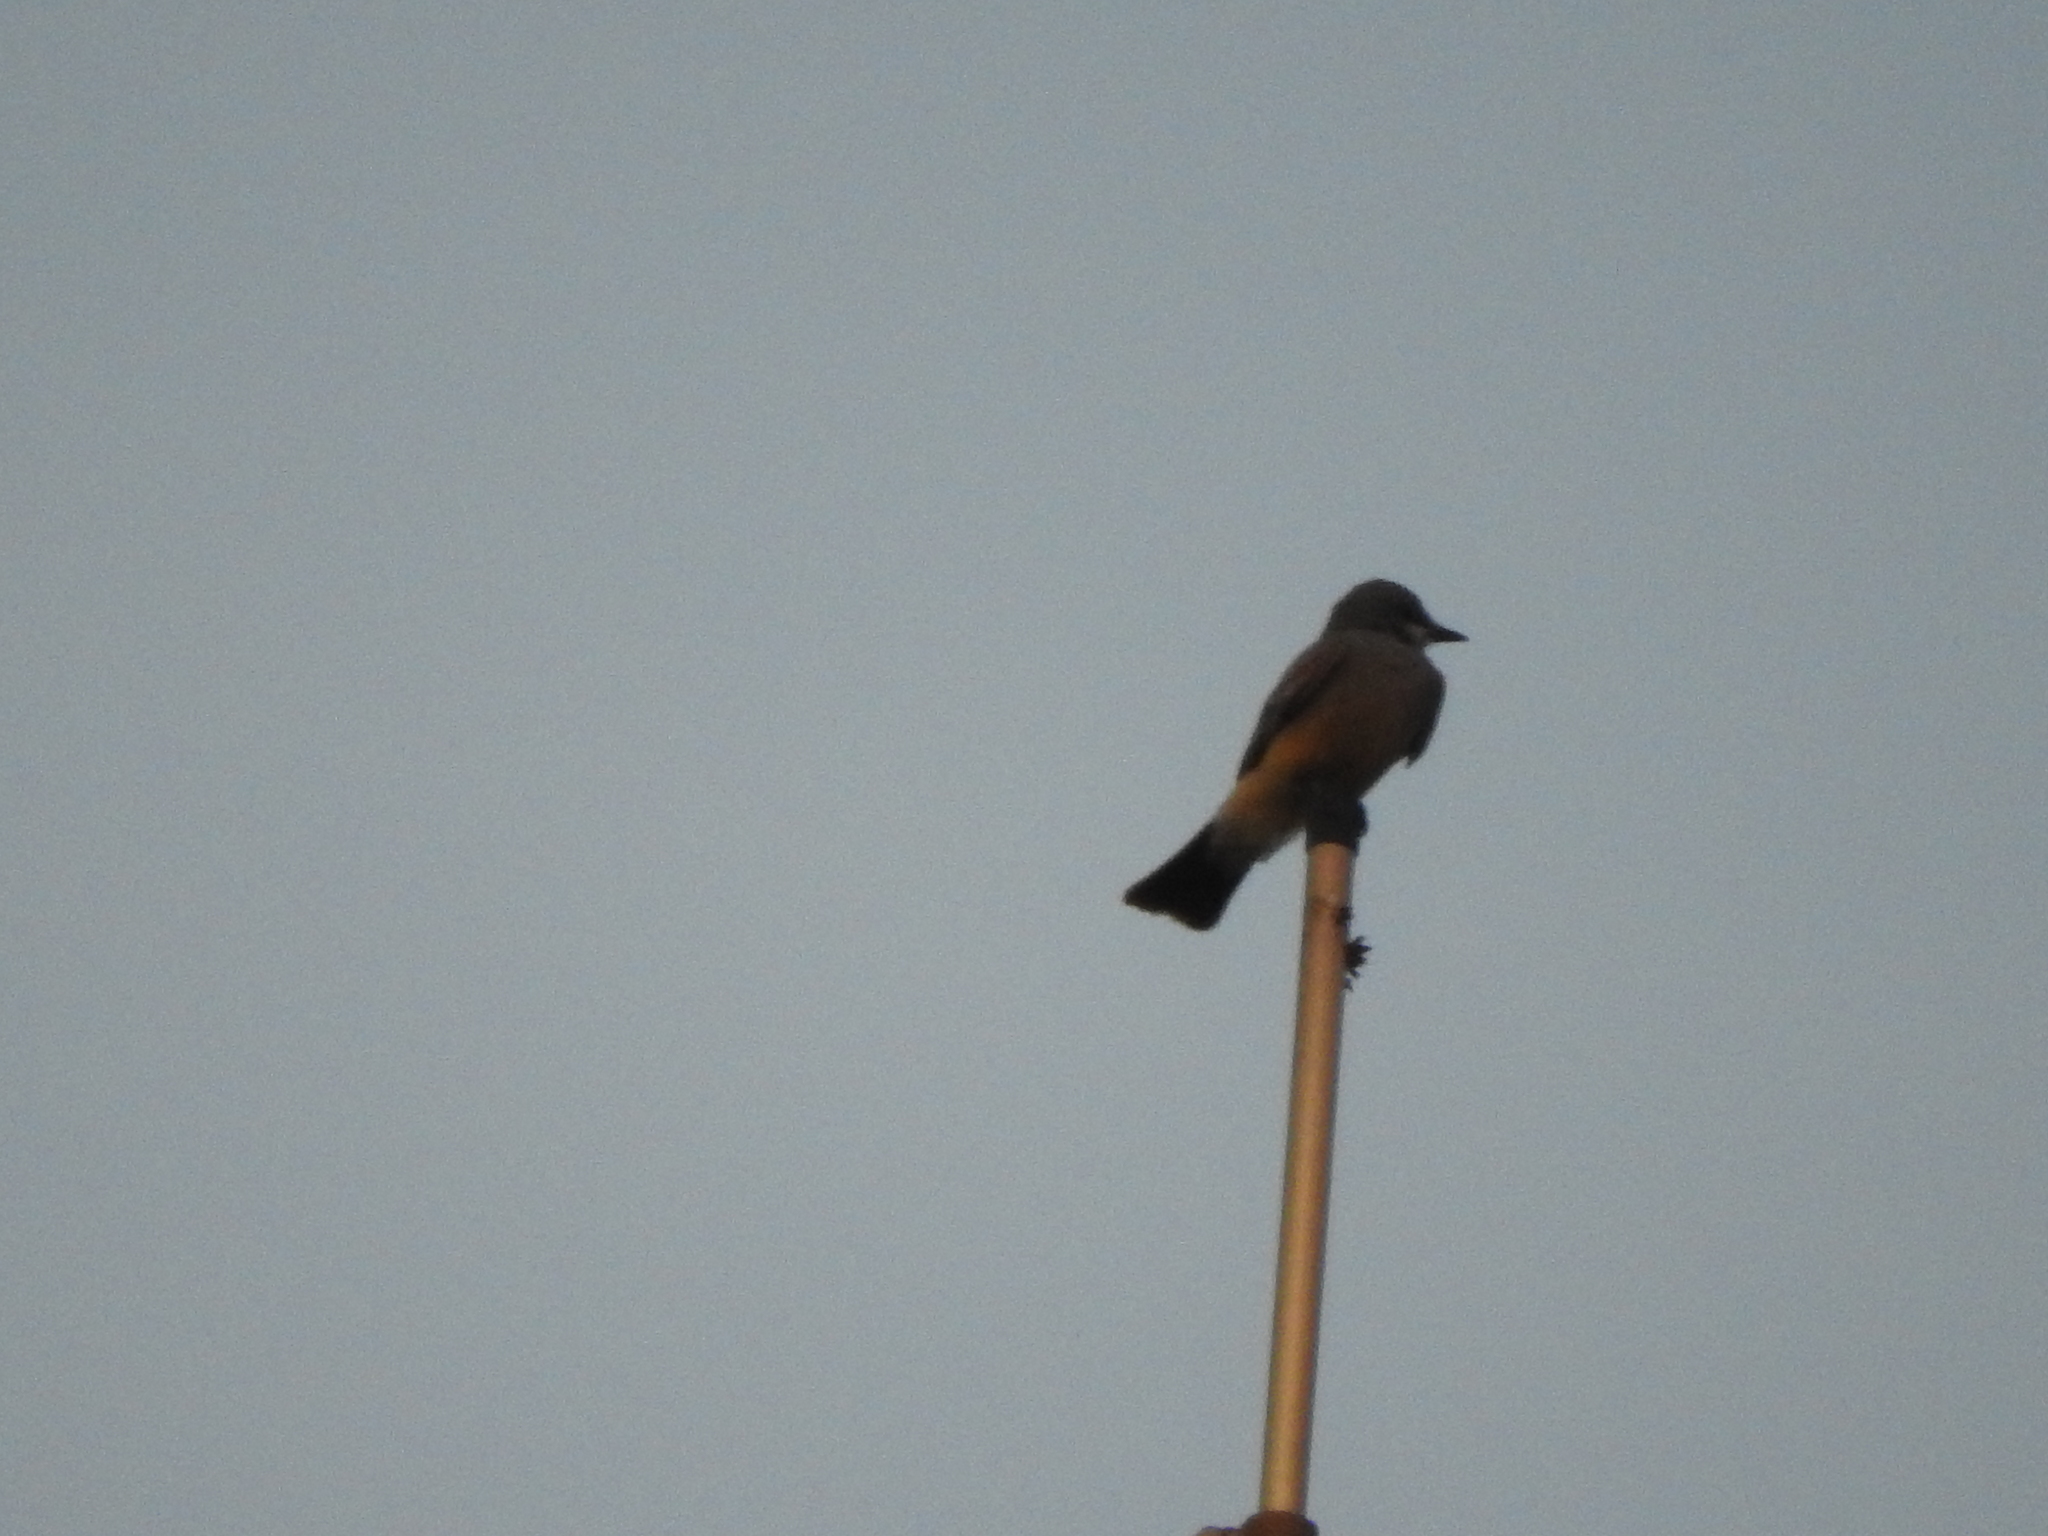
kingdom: Animalia
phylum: Chordata
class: Aves
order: Passeriformes
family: Tyrannidae
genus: Tyrannus
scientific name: Tyrannus vociferans
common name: Cassin's kingbird
